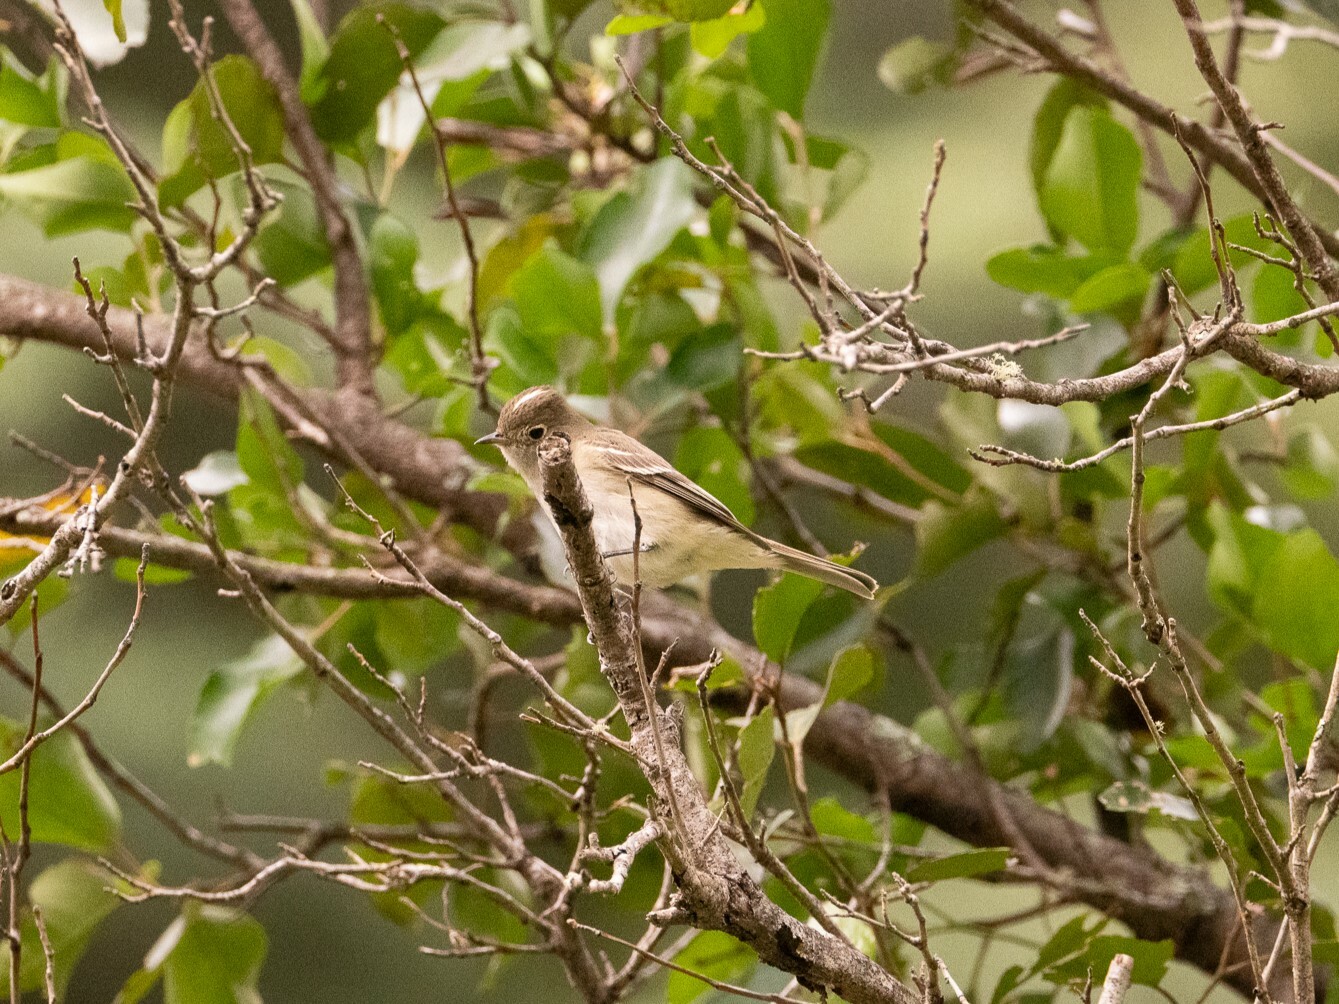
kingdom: Animalia
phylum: Chordata
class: Aves
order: Passeriformes
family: Tyrannidae
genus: Elaenia
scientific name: Elaenia albiceps
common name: White-crested elaenia
